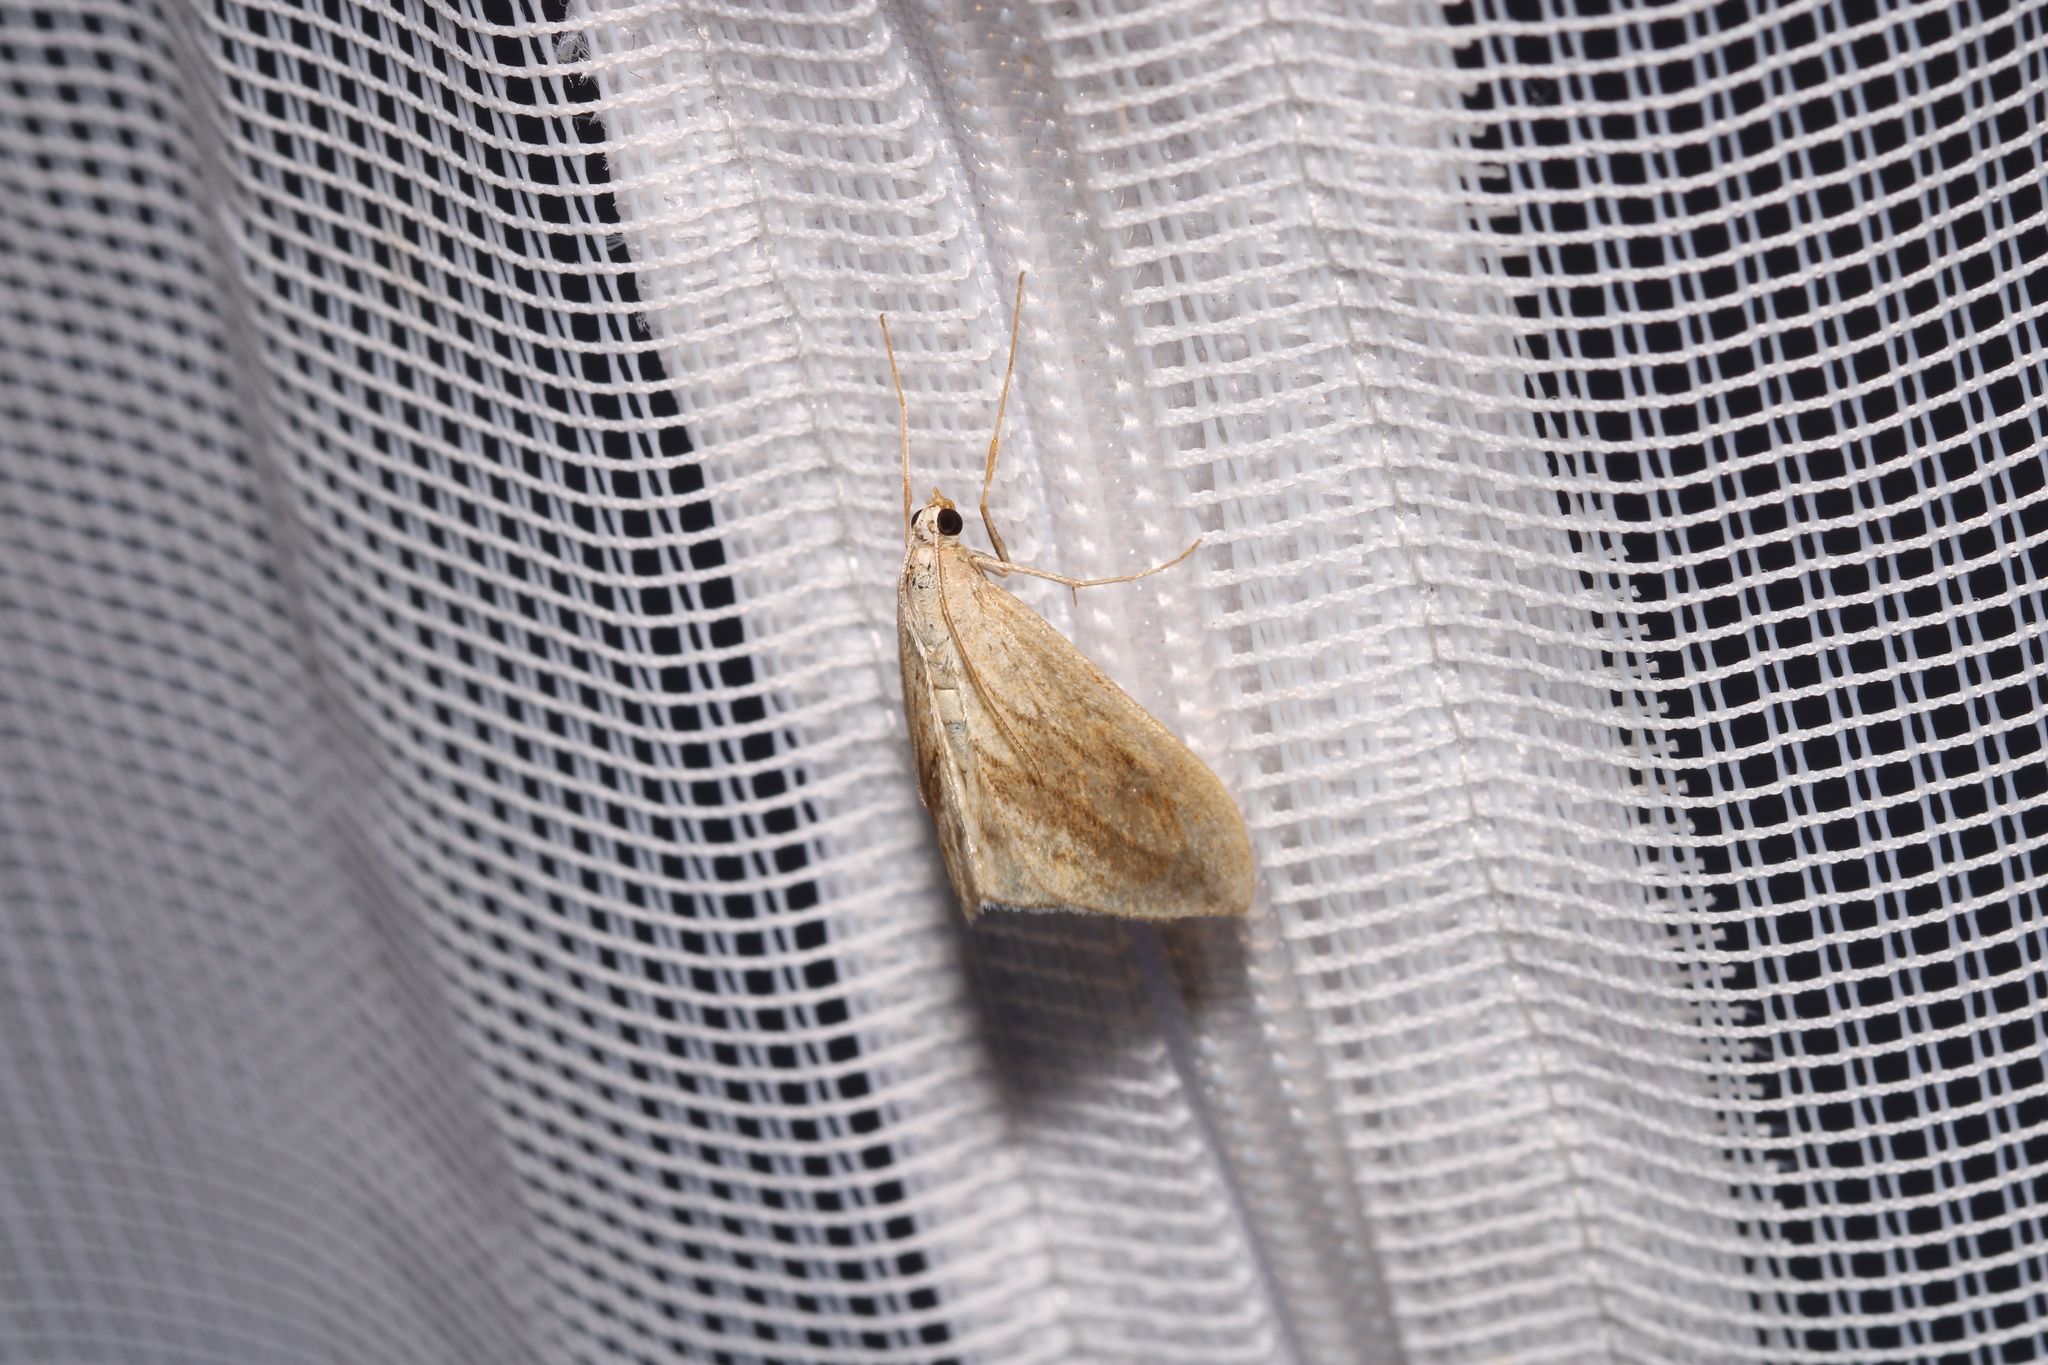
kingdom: Animalia
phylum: Arthropoda
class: Insecta
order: Lepidoptera
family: Crambidae
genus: Evergestis
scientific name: Evergestis forficalis
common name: Garden pebble
